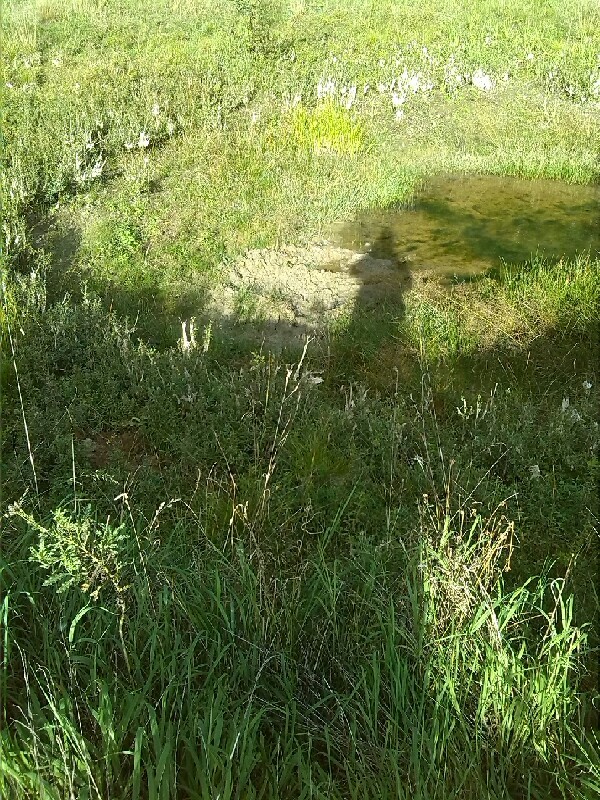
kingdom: Animalia
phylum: Chordata
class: Mammalia
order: Artiodactyla
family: Suidae
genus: Sus
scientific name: Sus scrofa
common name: Wild boar
